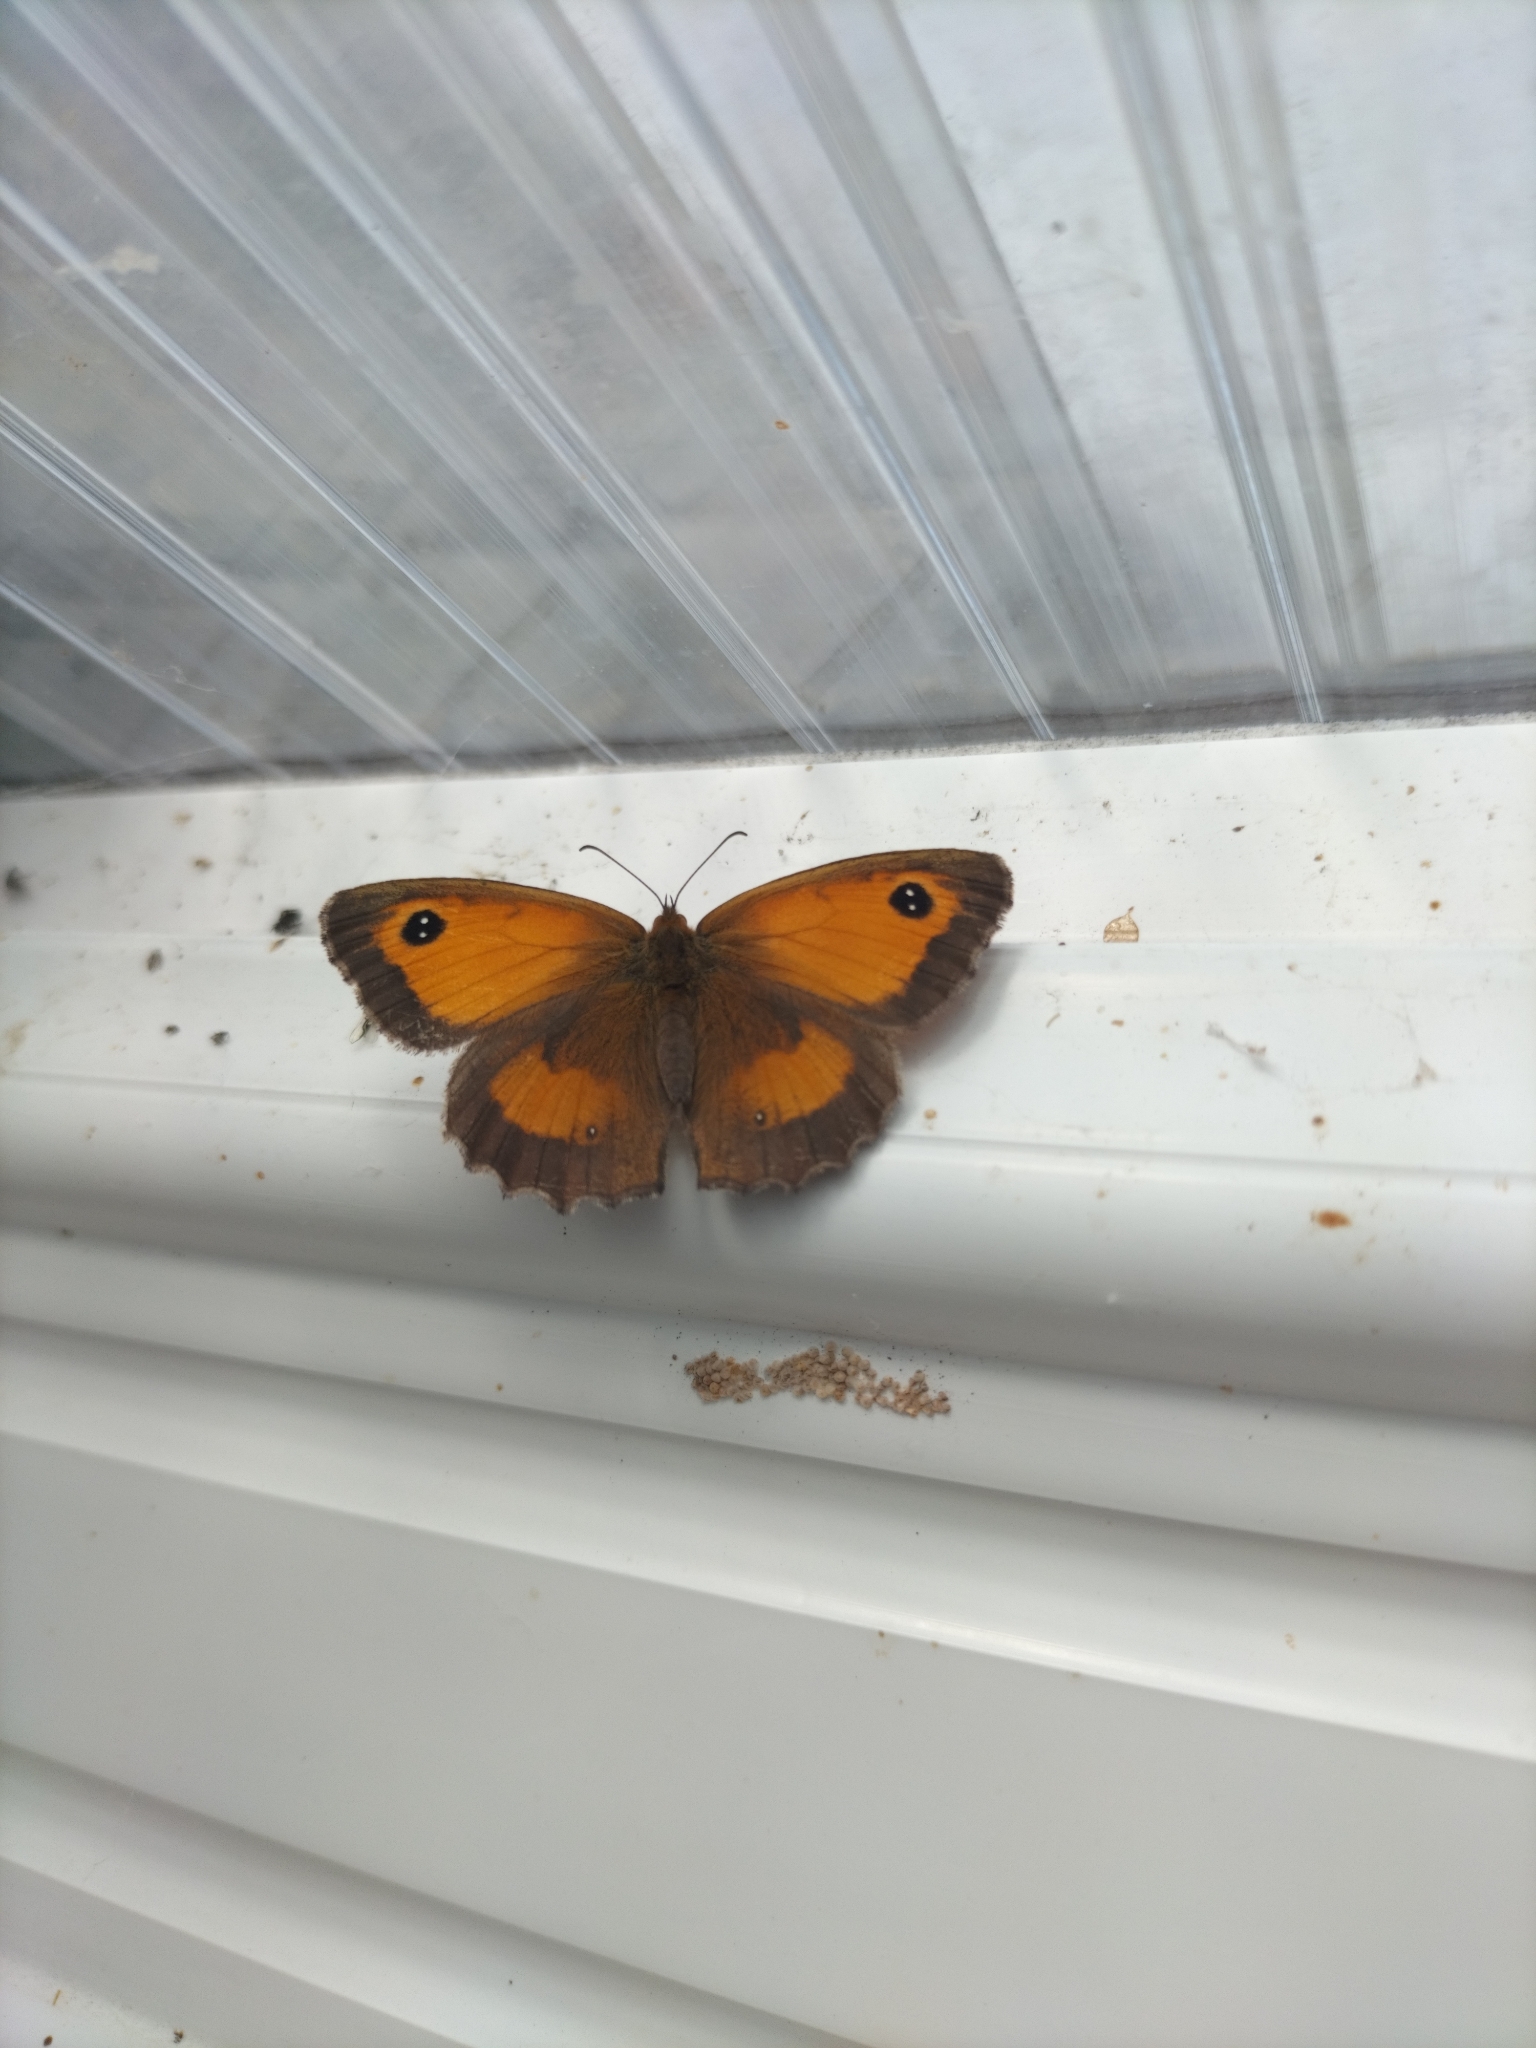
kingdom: Animalia
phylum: Arthropoda
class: Insecta
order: Lepidoptera
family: Nymphalidae
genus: Pyronia
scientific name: Pyronia tithonus
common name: Gatekeeper
